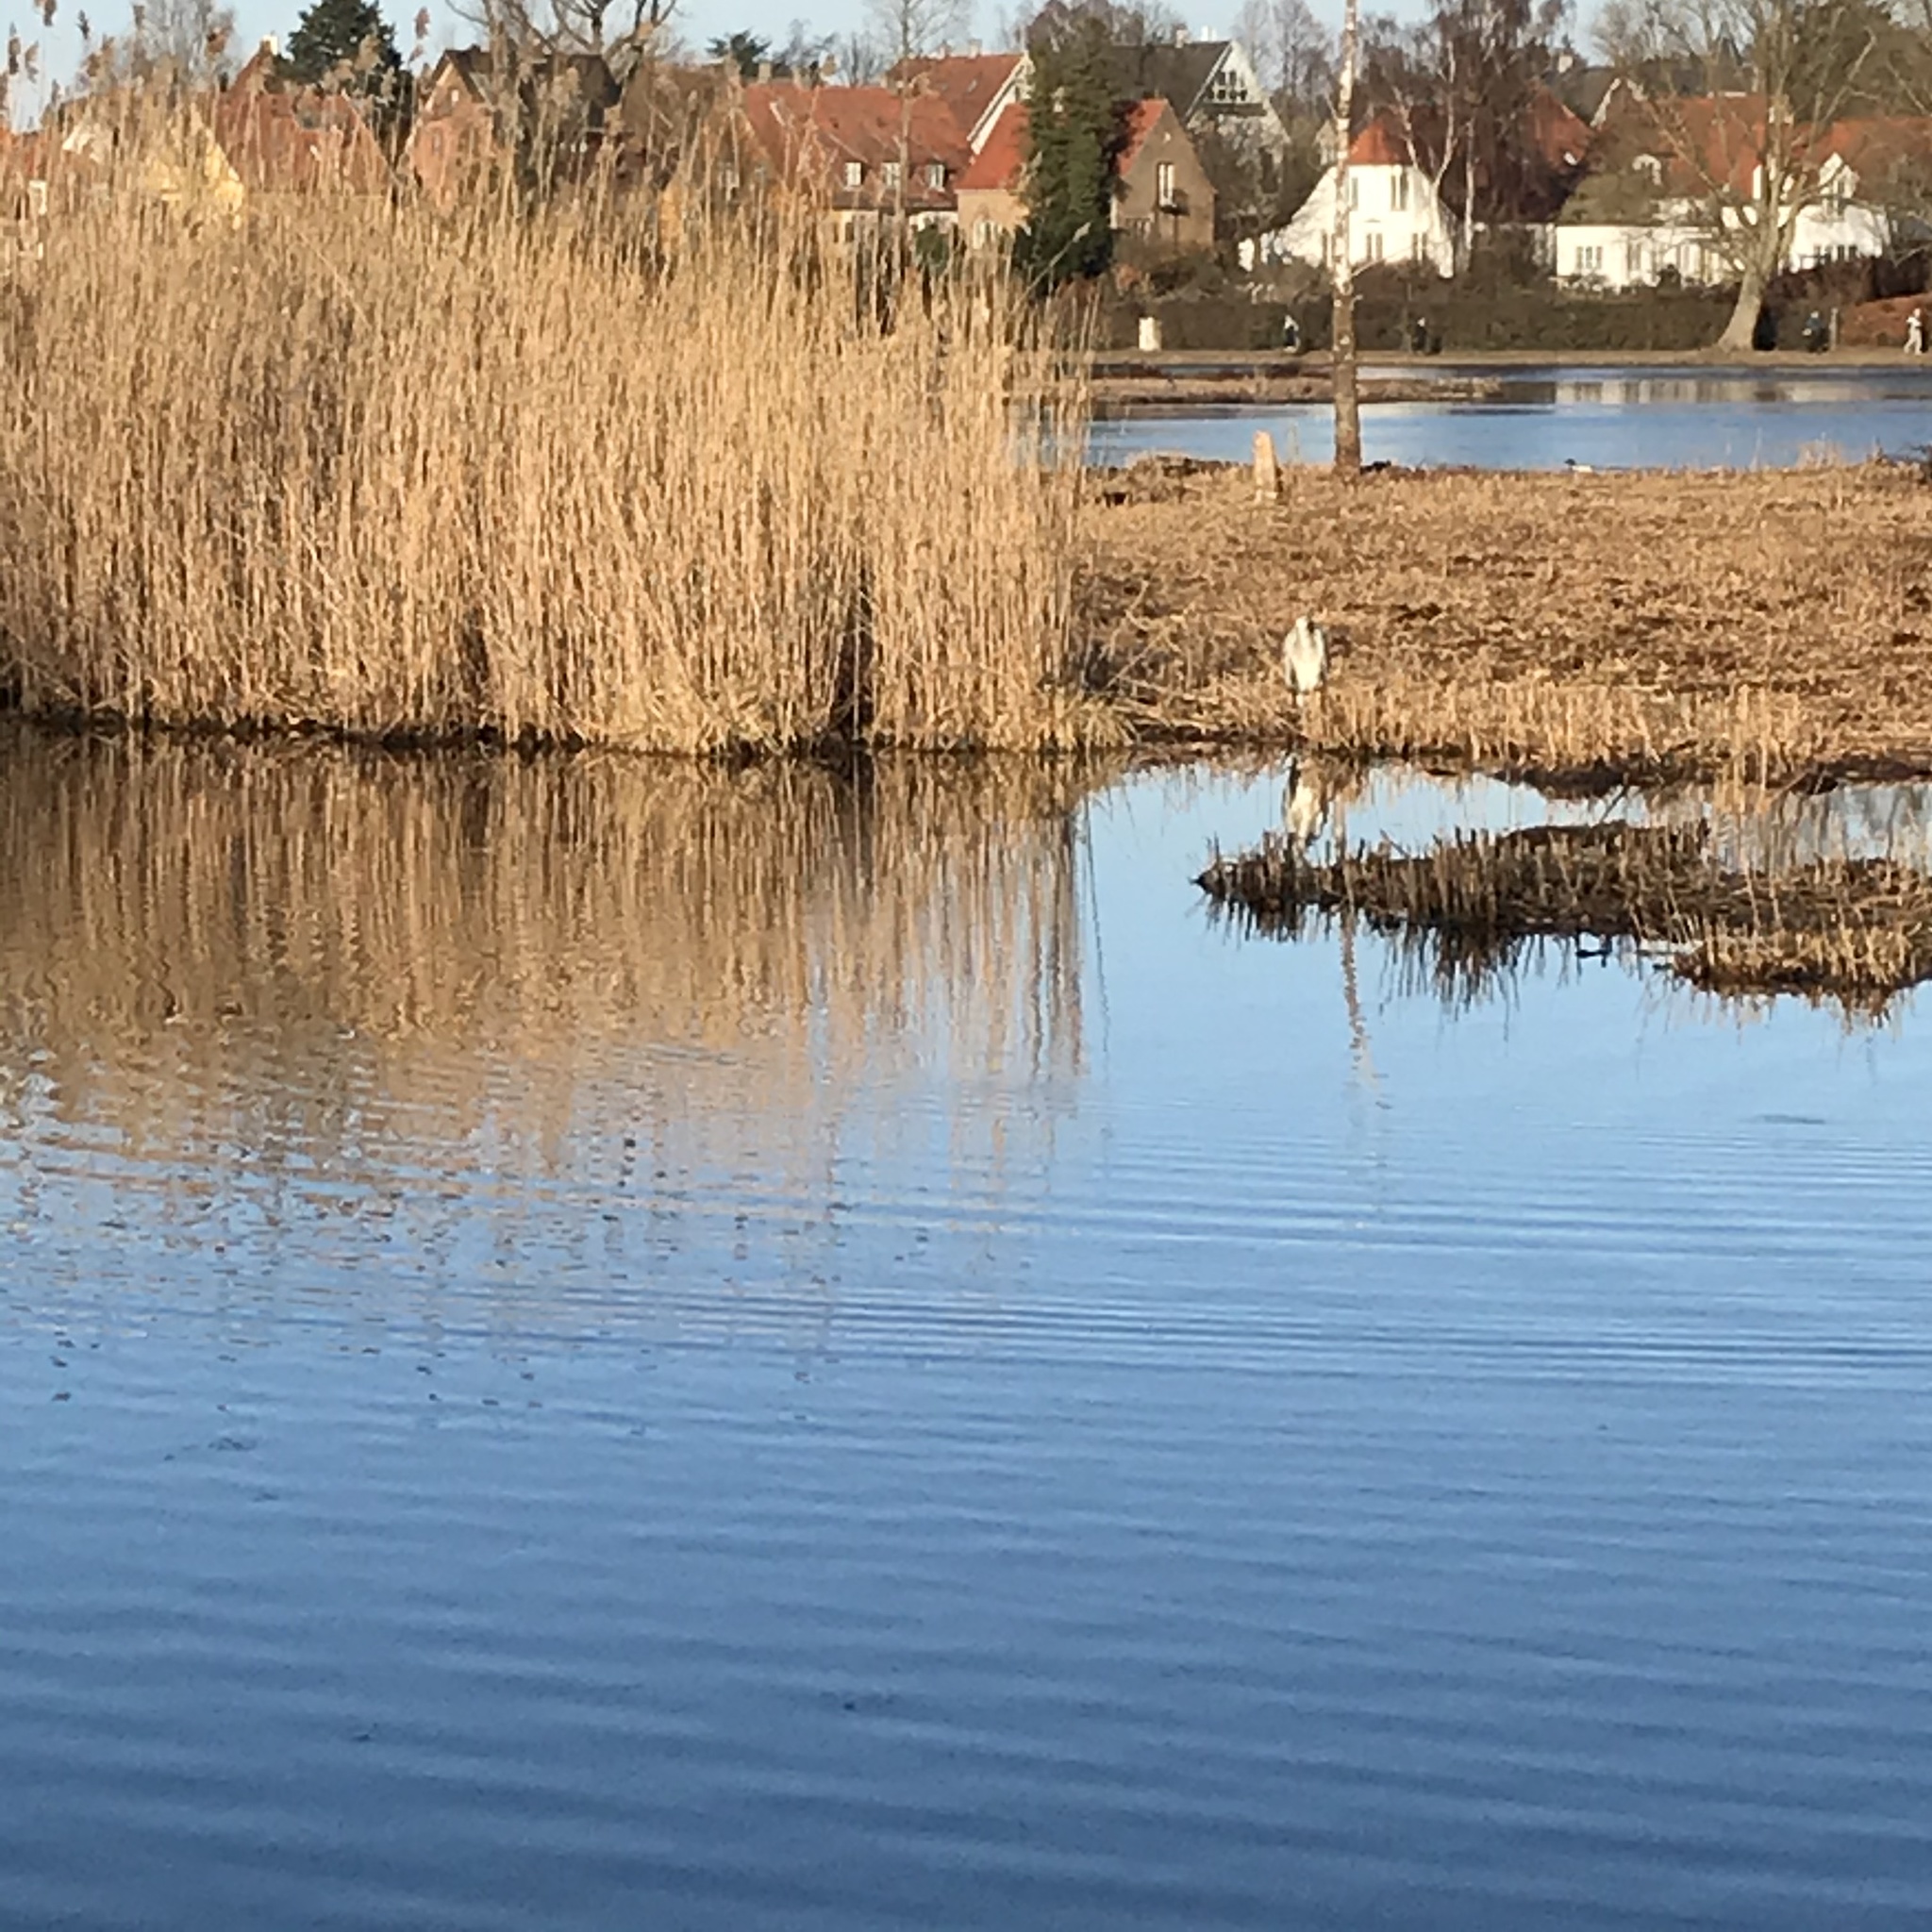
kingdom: Animalia
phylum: Chordata
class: Aves
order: Pelecaniformes
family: Ardeidae
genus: Ardea
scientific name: Ardea cinerea
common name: Grey heron
